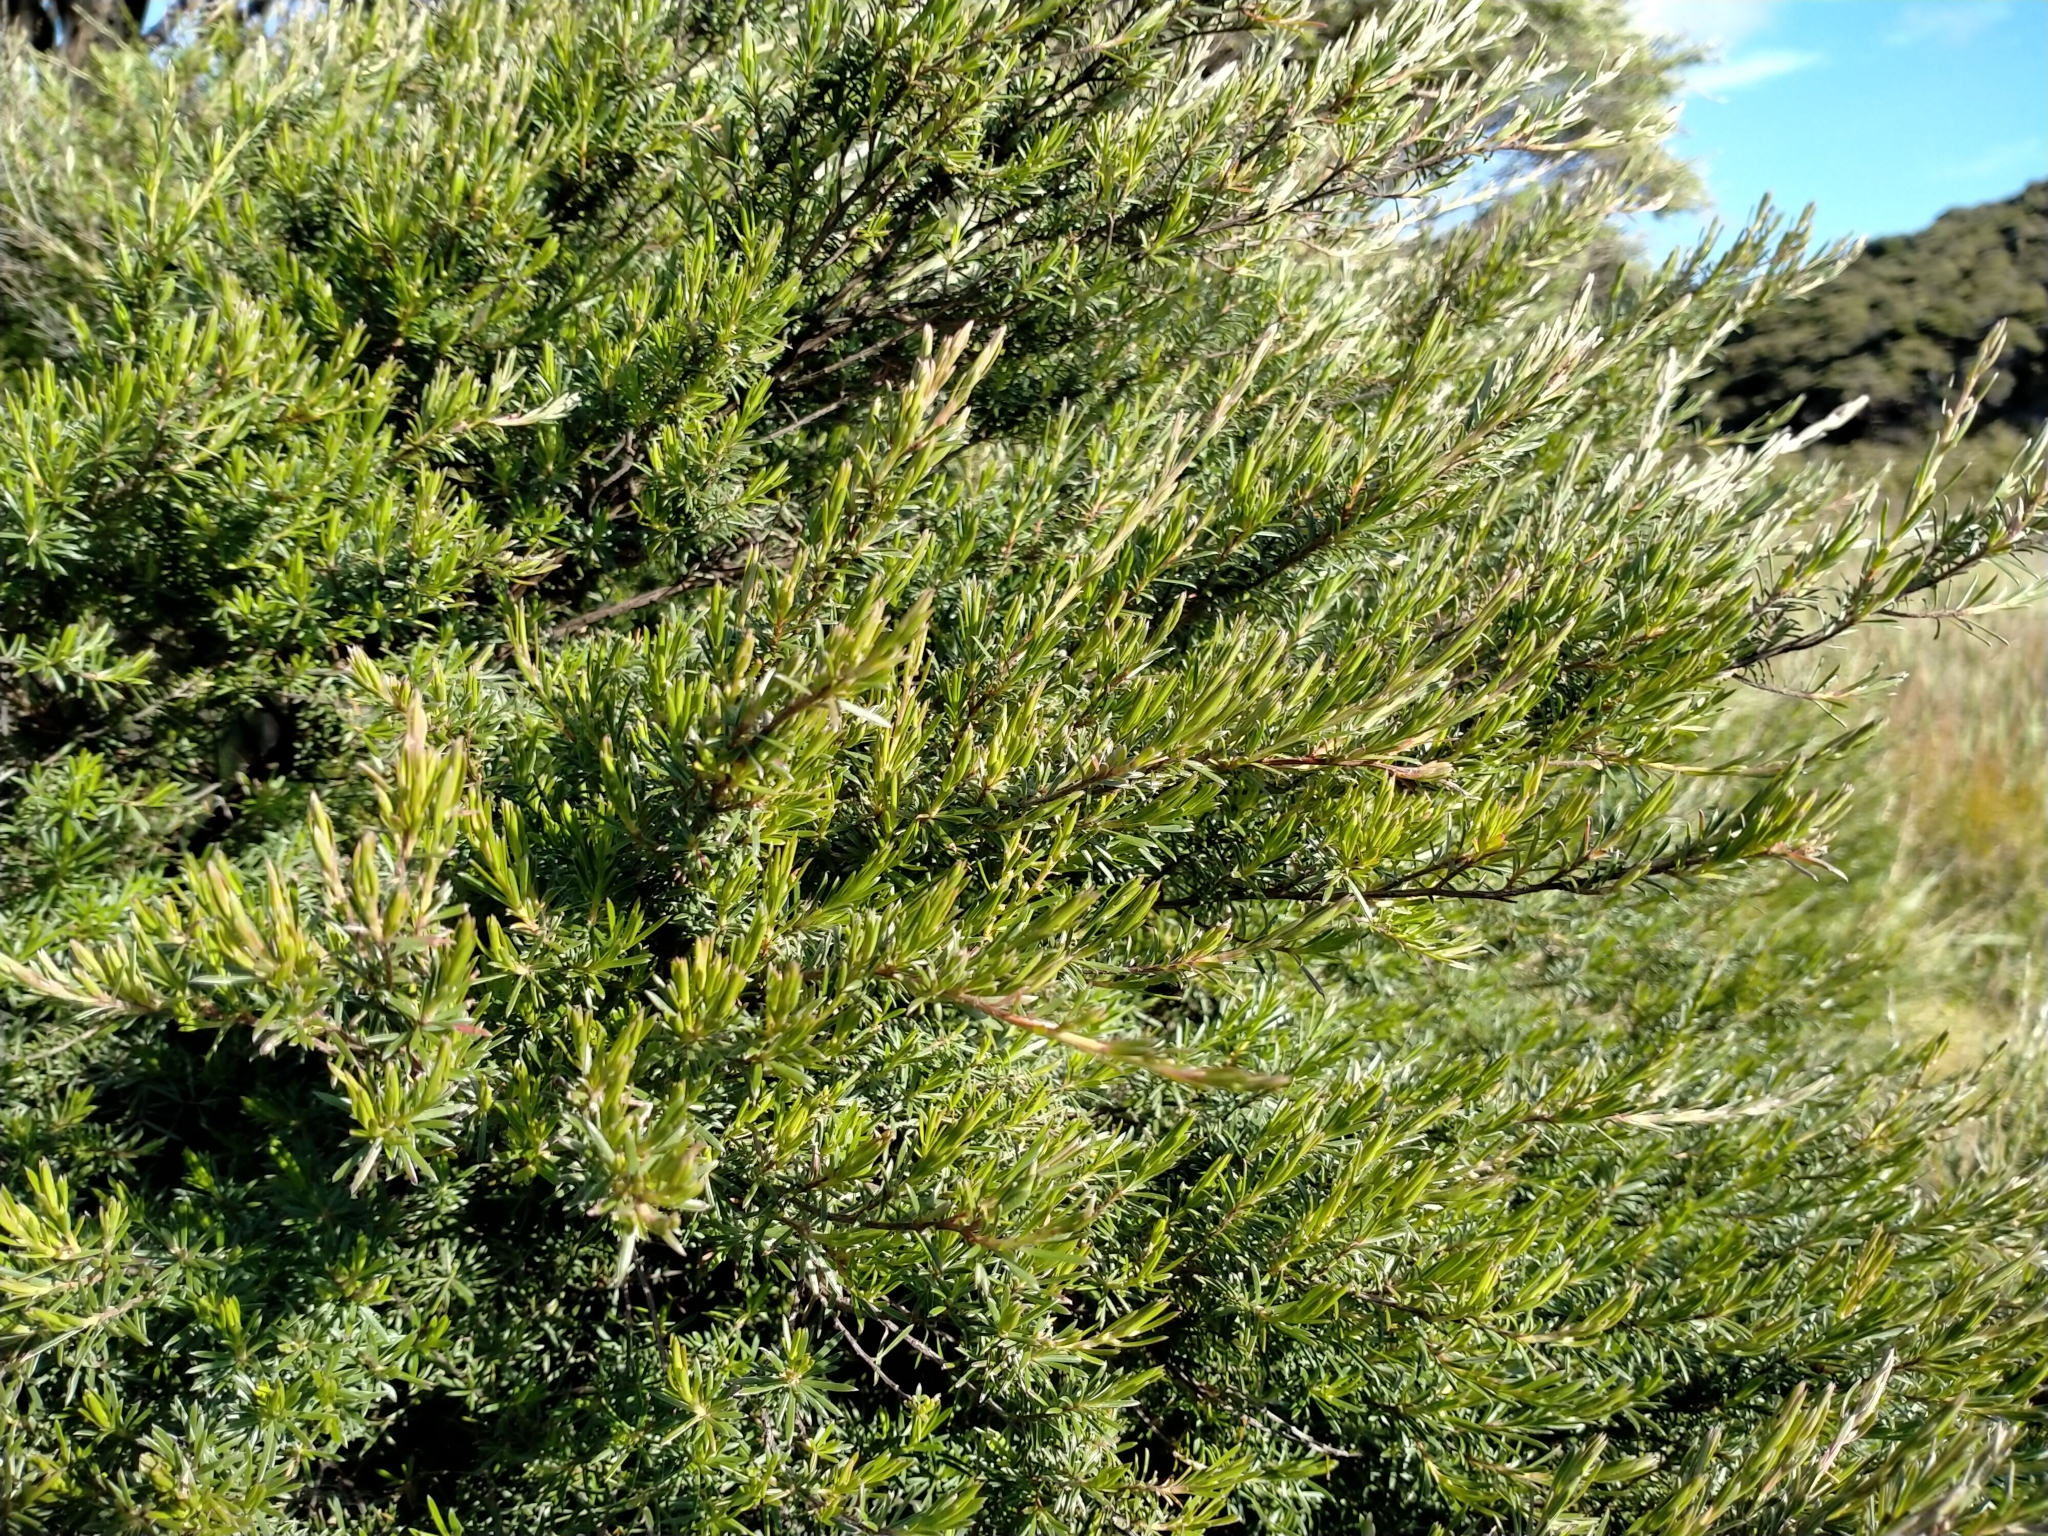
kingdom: Plantae
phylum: Tracheophyta
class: Magnoliopsida
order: Myrtales
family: Myrtaceae
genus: Kunzea
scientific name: Kunzea linearis
